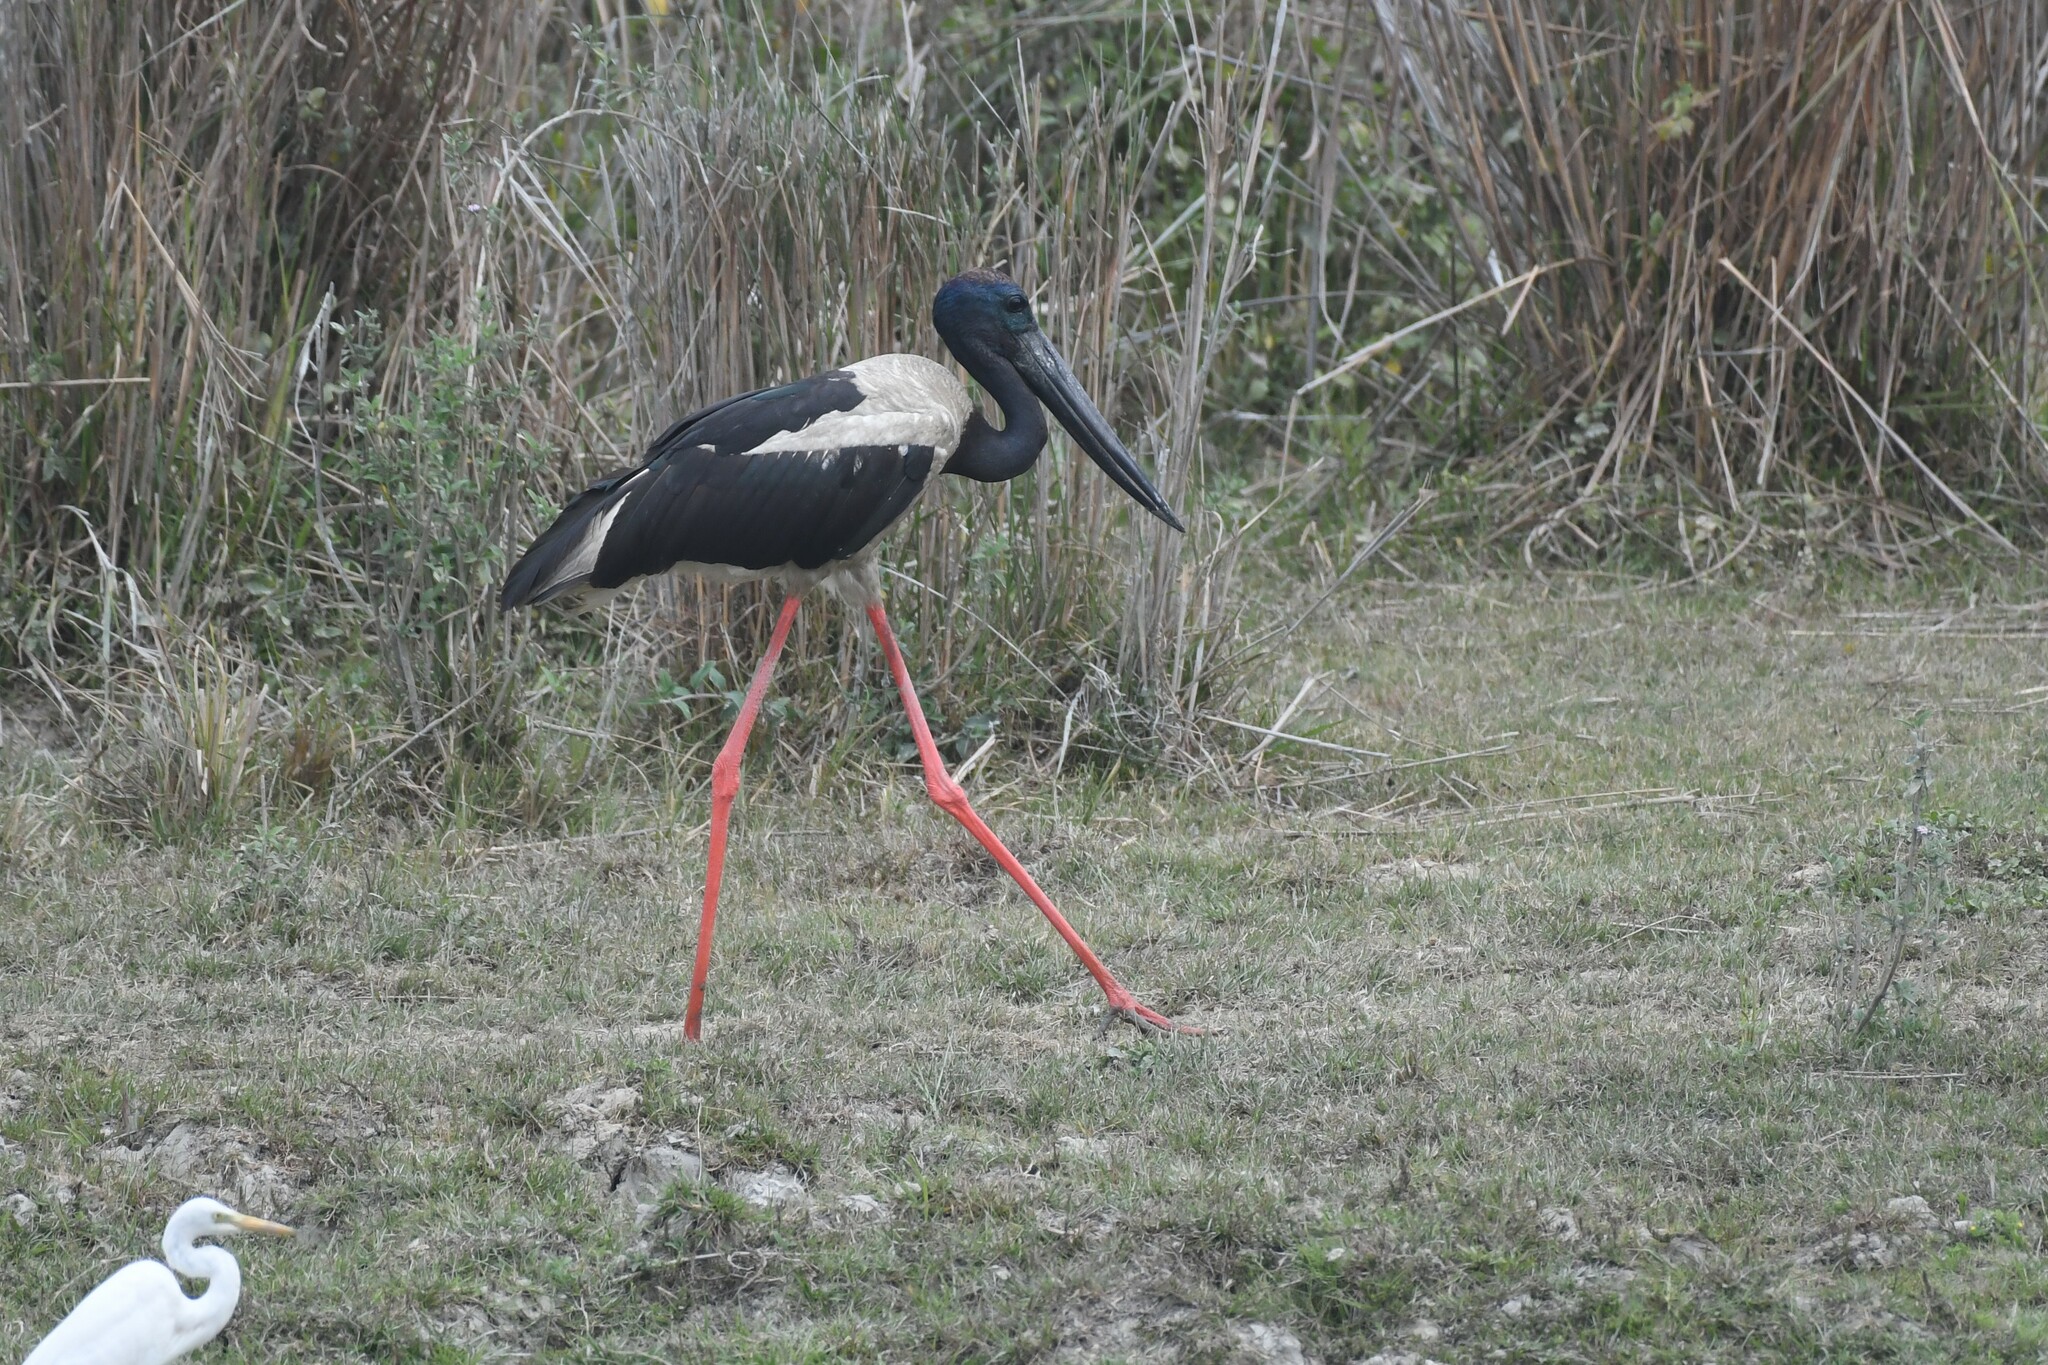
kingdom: Animalia
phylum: Chordata
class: Aves
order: Ciconiiformes
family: Ciconiidae
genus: Ephippiorhynchus
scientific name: Ephippiorhynchus asiaticus
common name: Black-necked stork
